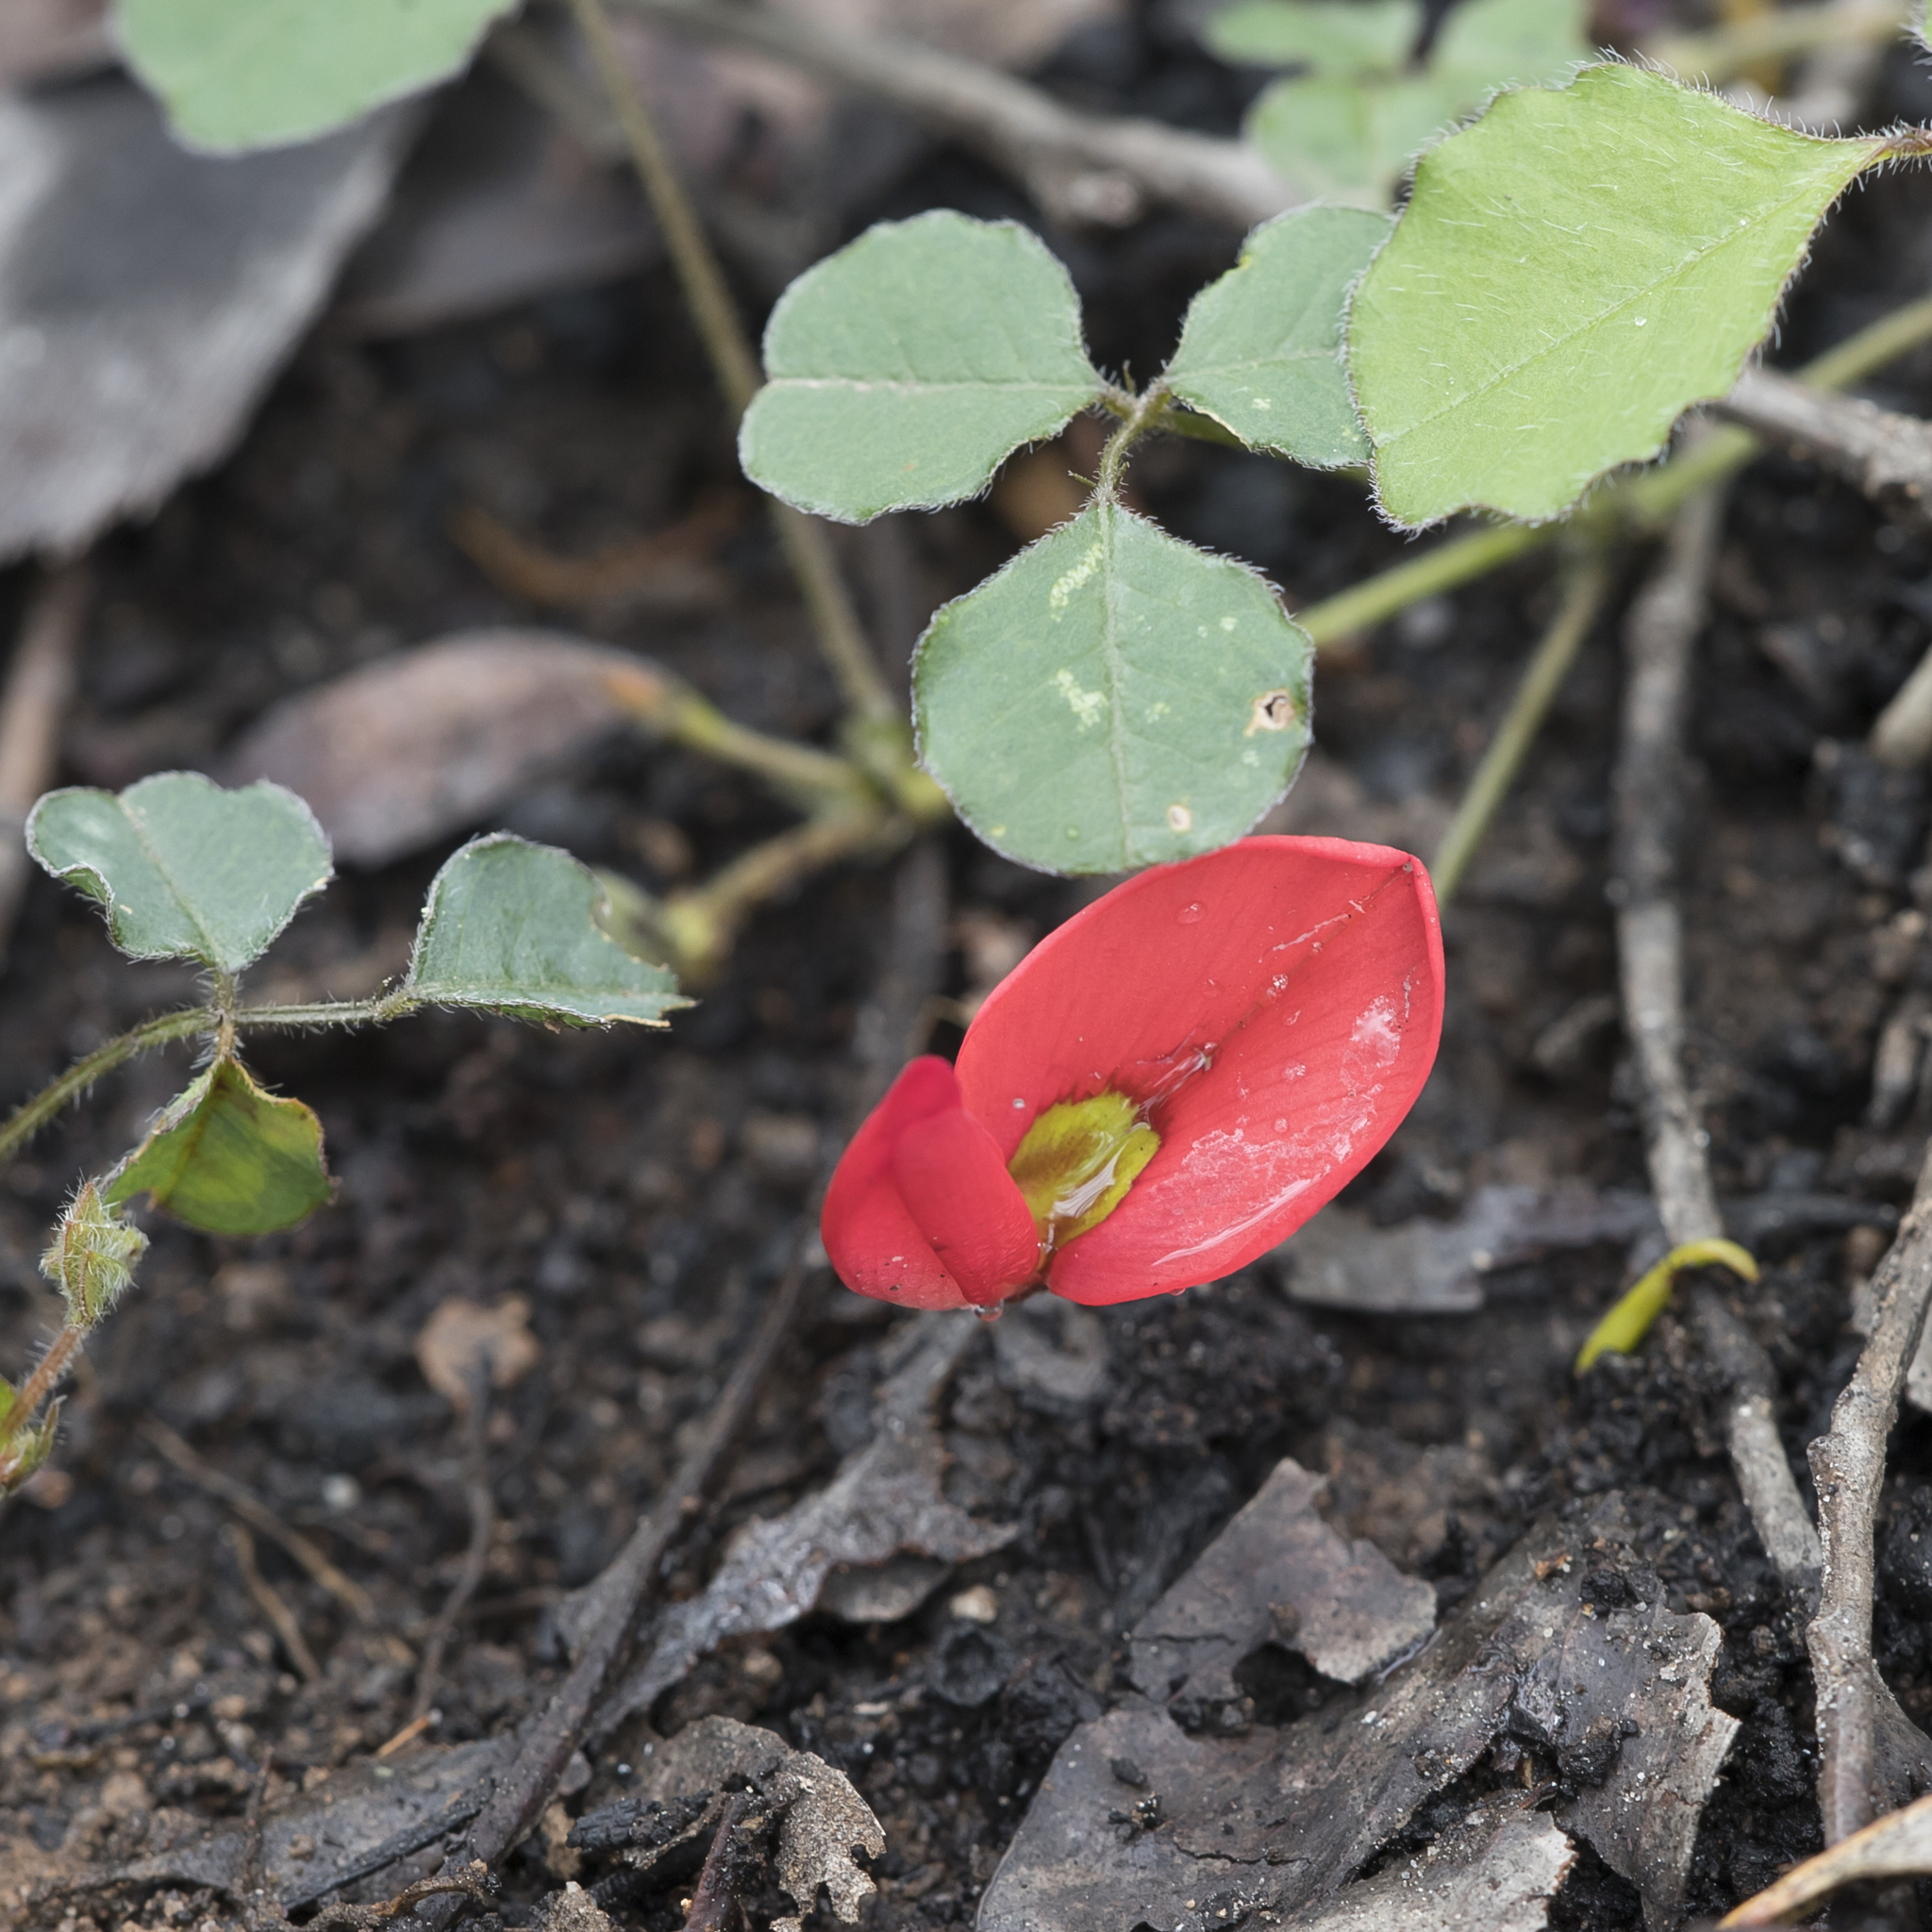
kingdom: Plantae
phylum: Tracheophyta
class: Magnoliopsida
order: Fabales
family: Fabaceae
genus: Kennedia
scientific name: Kennedia prostrata
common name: Running-postman
